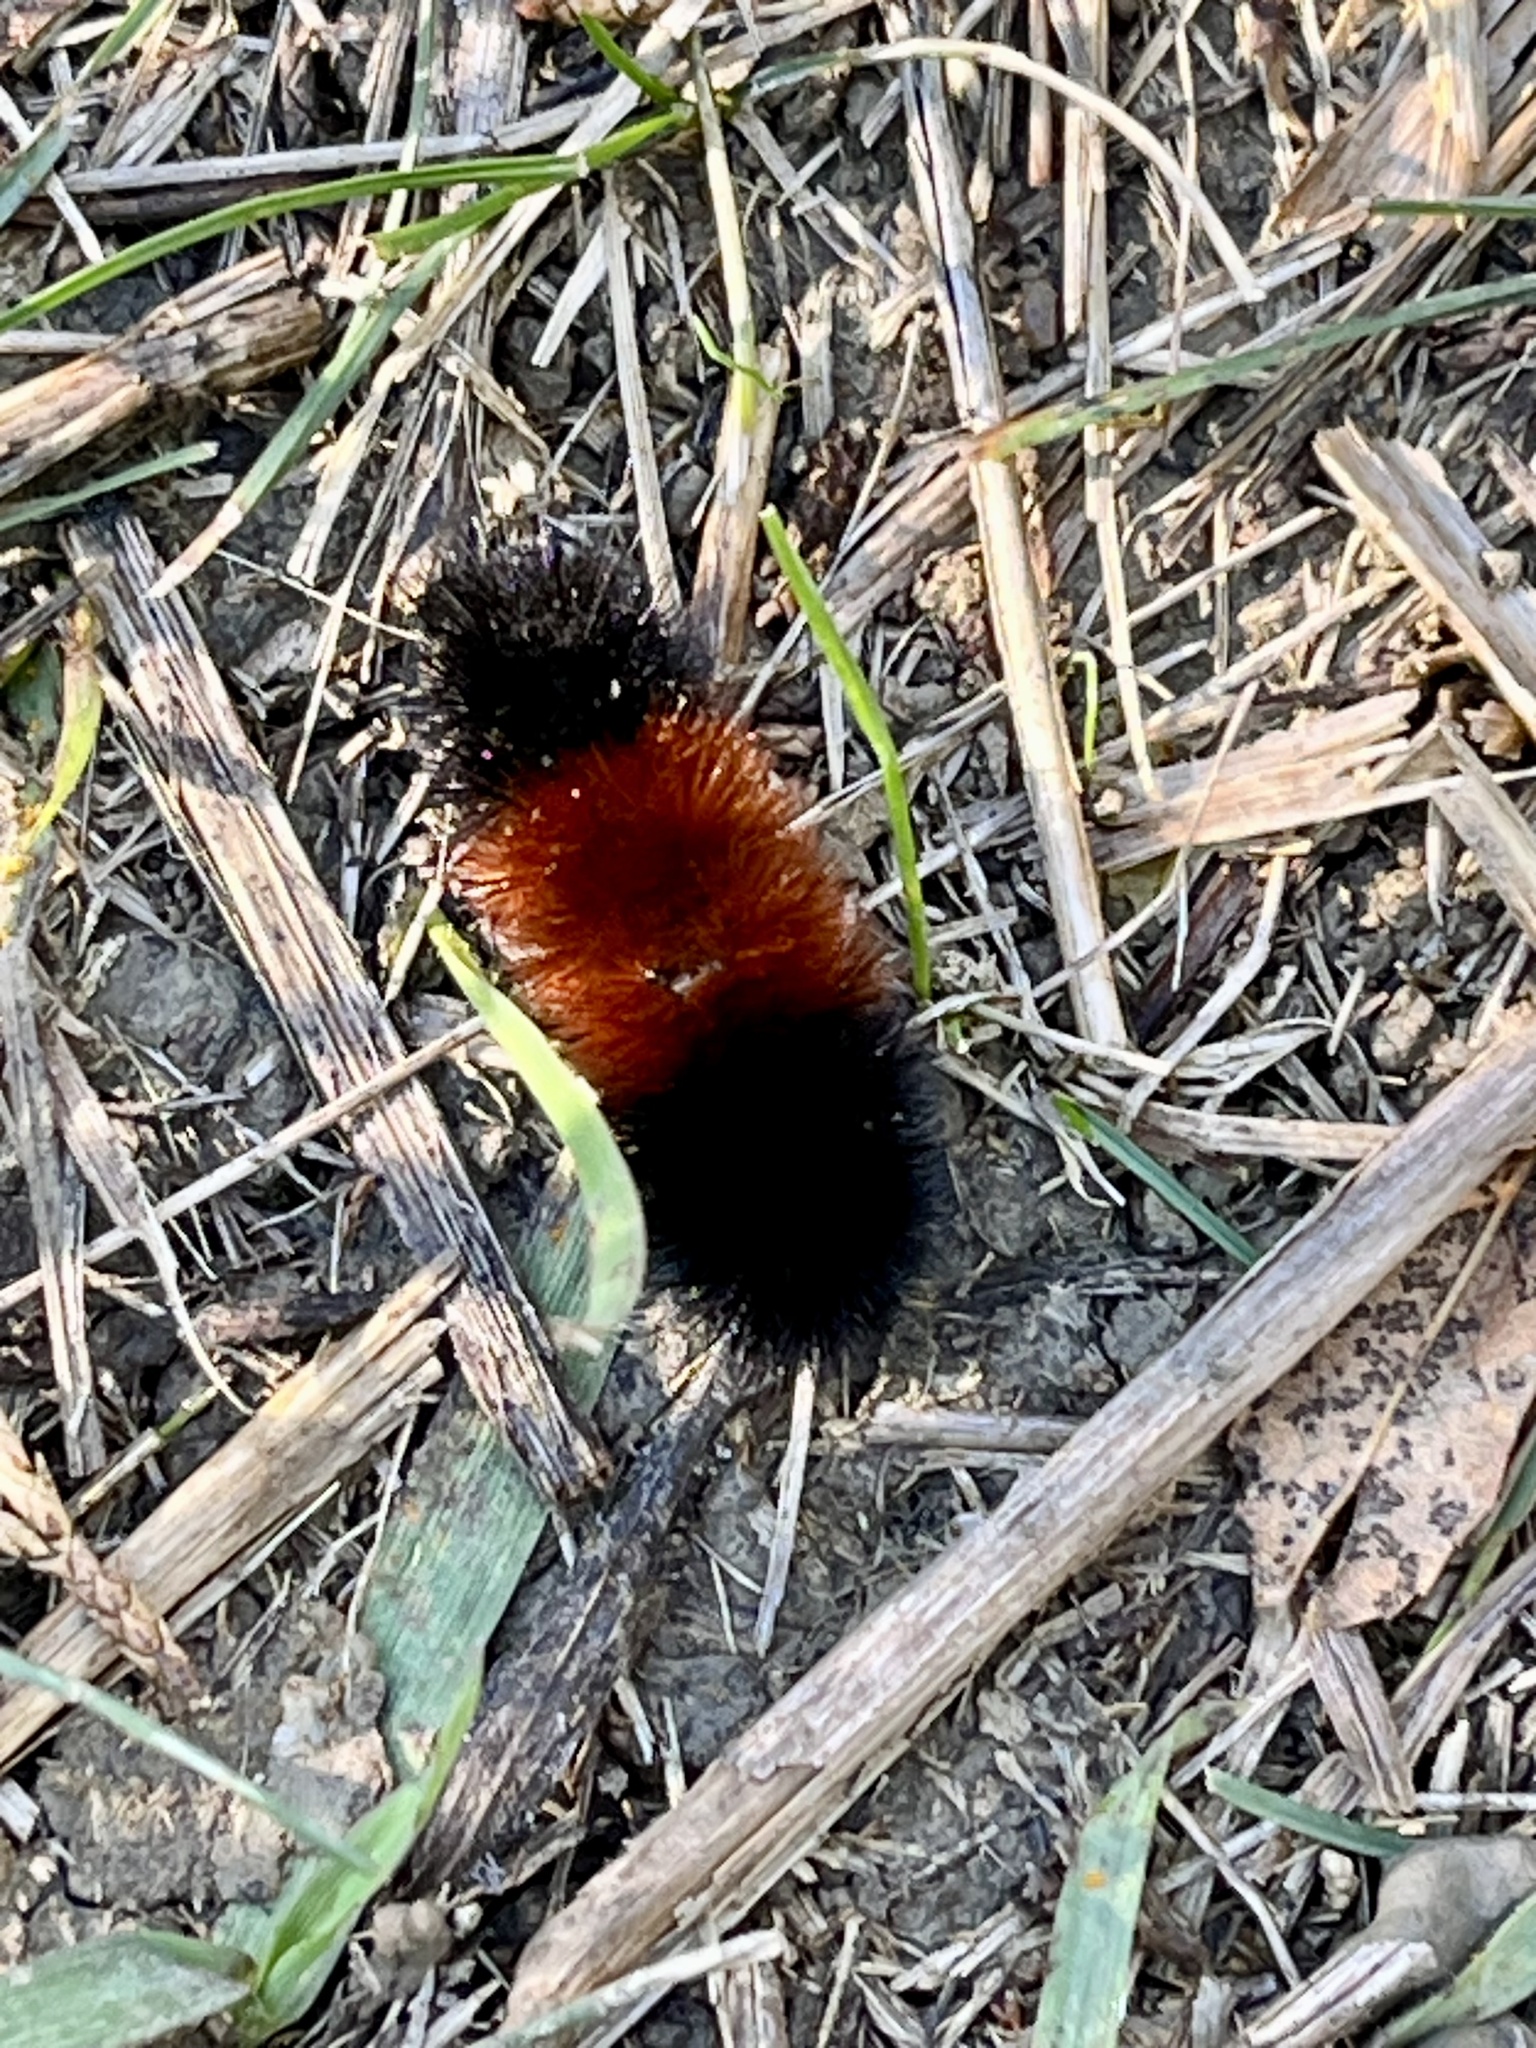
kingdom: Animalia
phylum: Arthropoda
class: Insecta
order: Lepidoptera
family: Erebidae
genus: Pyrrharctia
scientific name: Pyrrharctia isabella
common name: Isabella tiger moth
